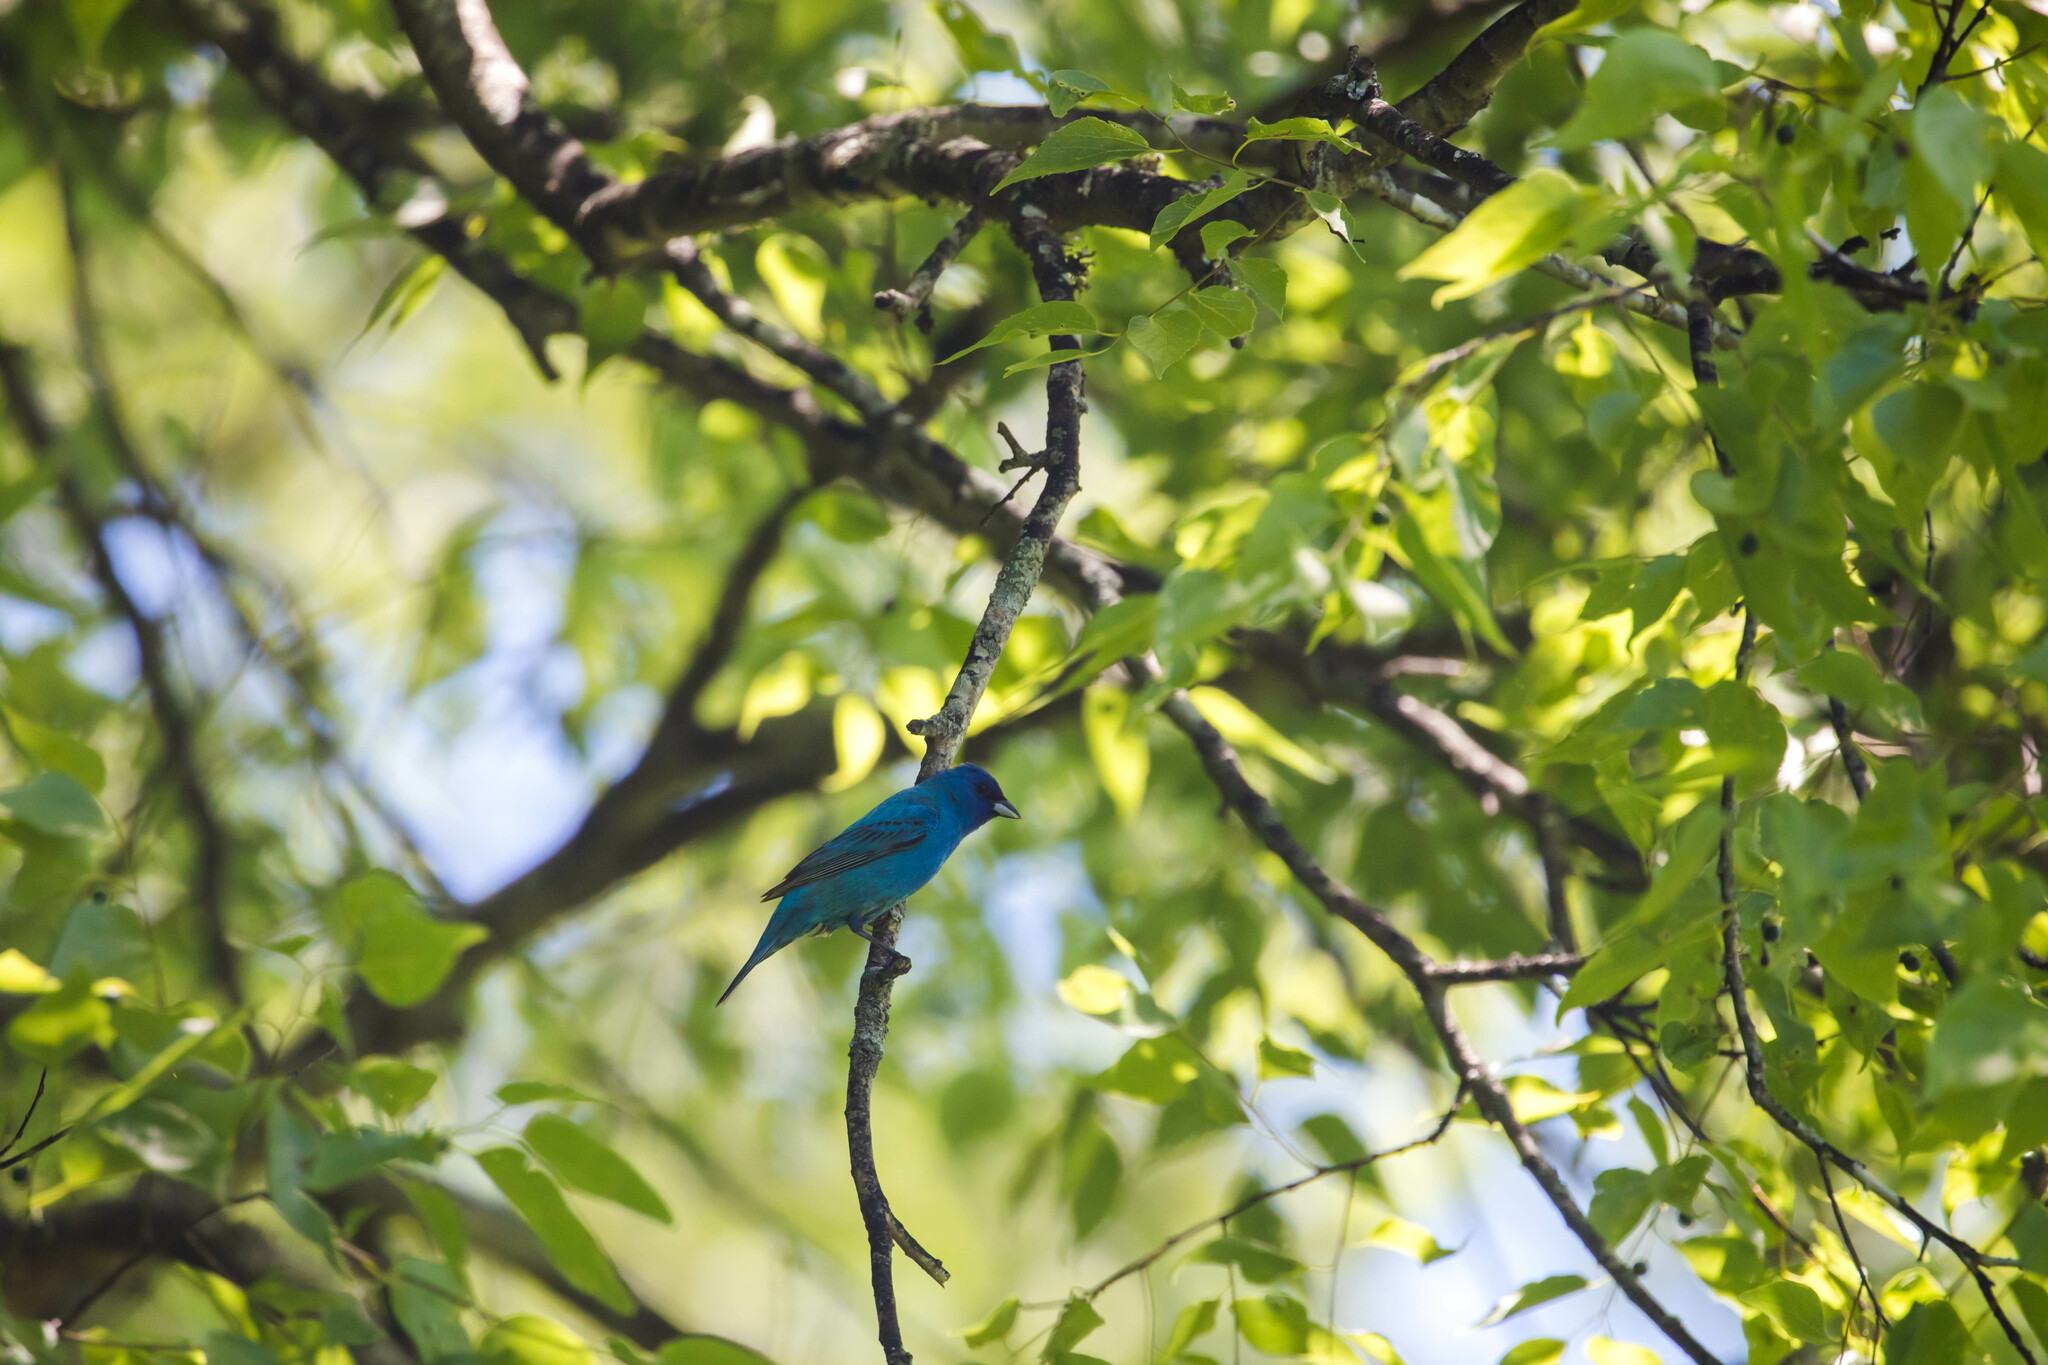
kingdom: Animalia
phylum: Chordata
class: Aves
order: Passeriformes
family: Cardinalidae
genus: Passerina
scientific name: Passerina cyanea
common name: Indigo bunting
